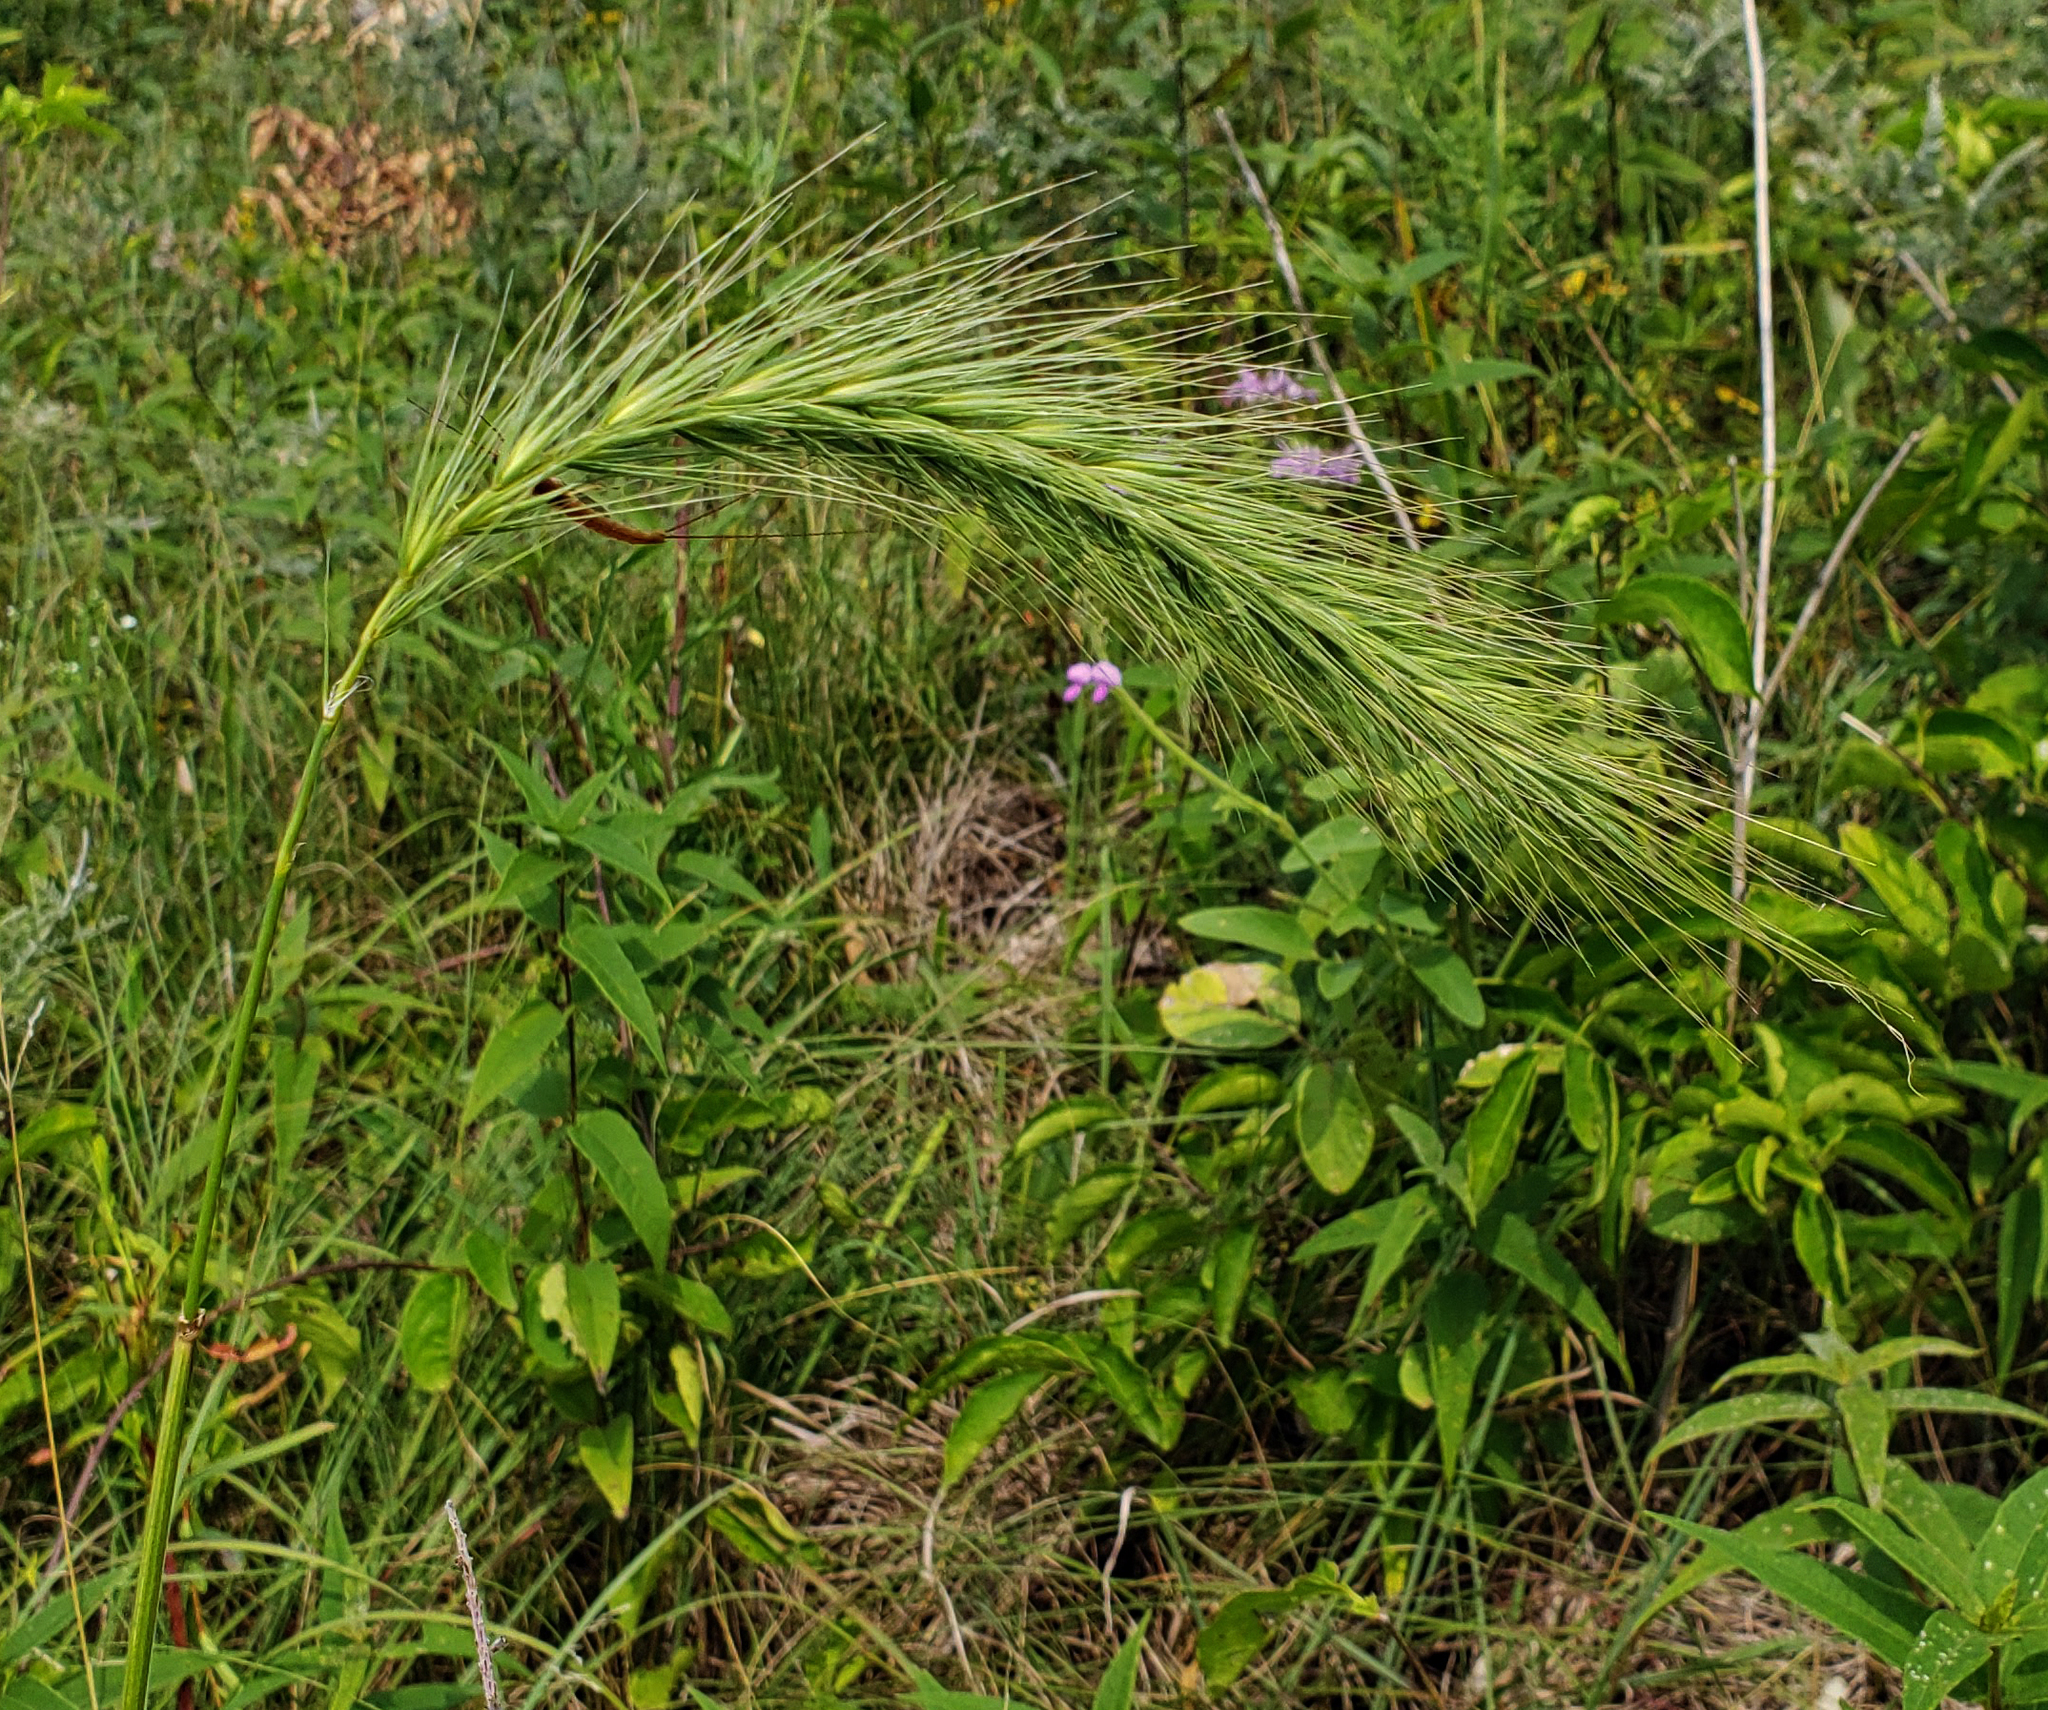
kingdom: Plantae
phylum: Tracheophyta
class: Liliopsida
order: Poales
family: Poaceae
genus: Elymus
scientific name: Elymus canadensis
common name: Canada wild rye
